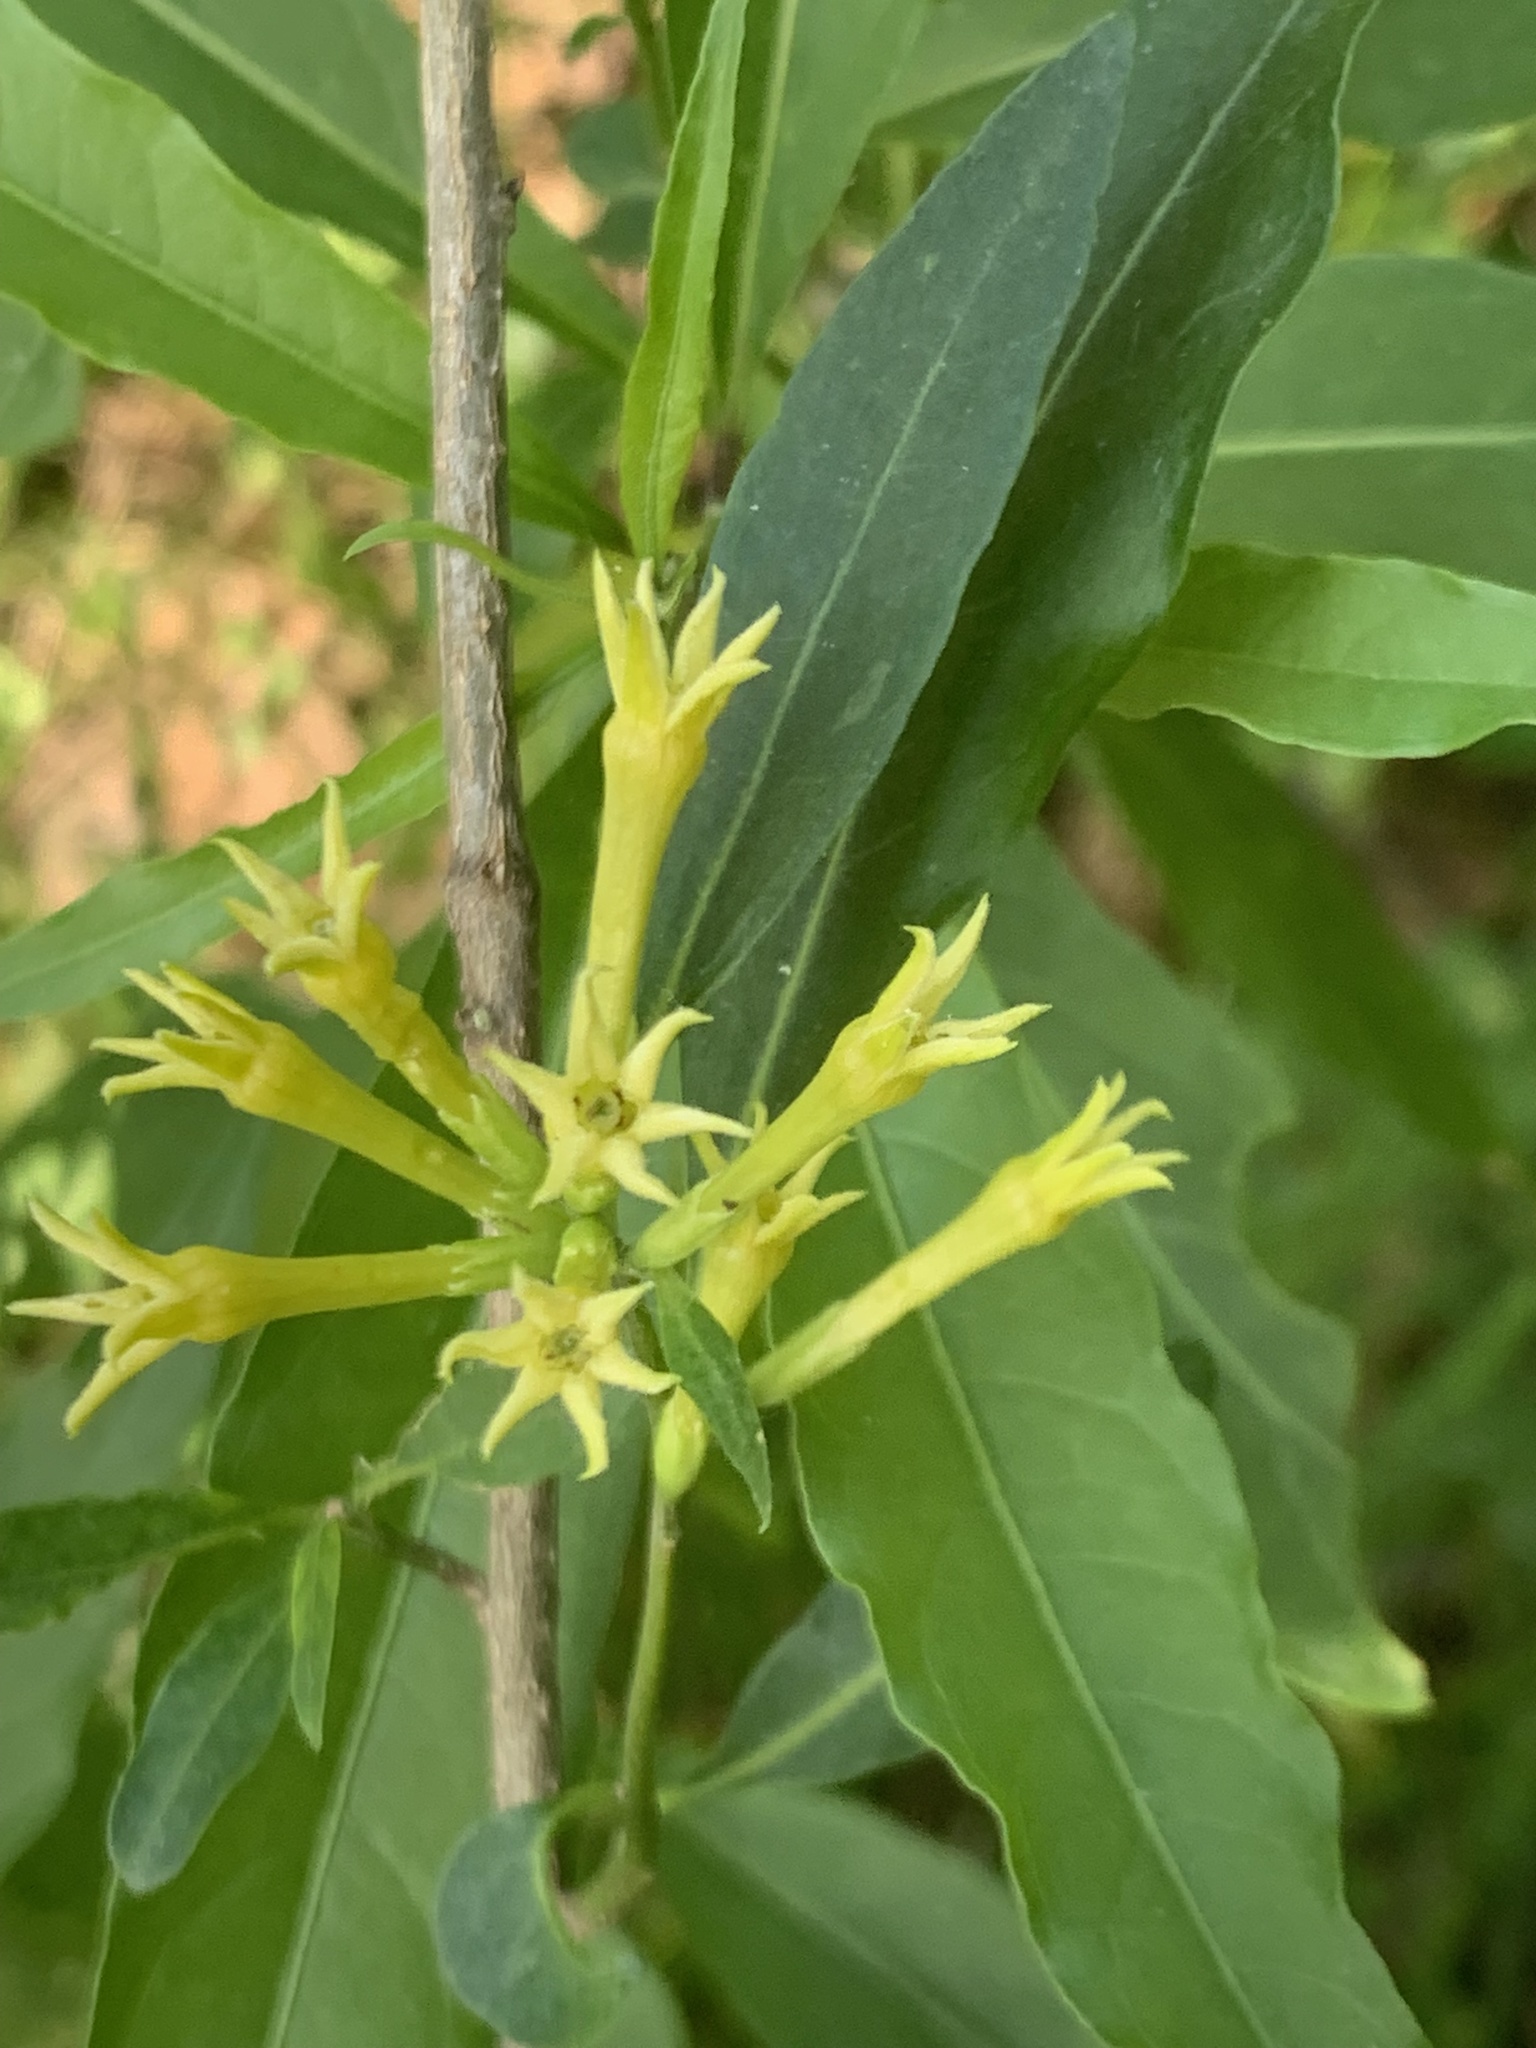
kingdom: Plantae
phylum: Tracheophyta
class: Magnoliopsida
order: Solanales
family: Solanaceae
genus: Cestrum
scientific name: Cestrum parqui
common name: Chilean cestrum
